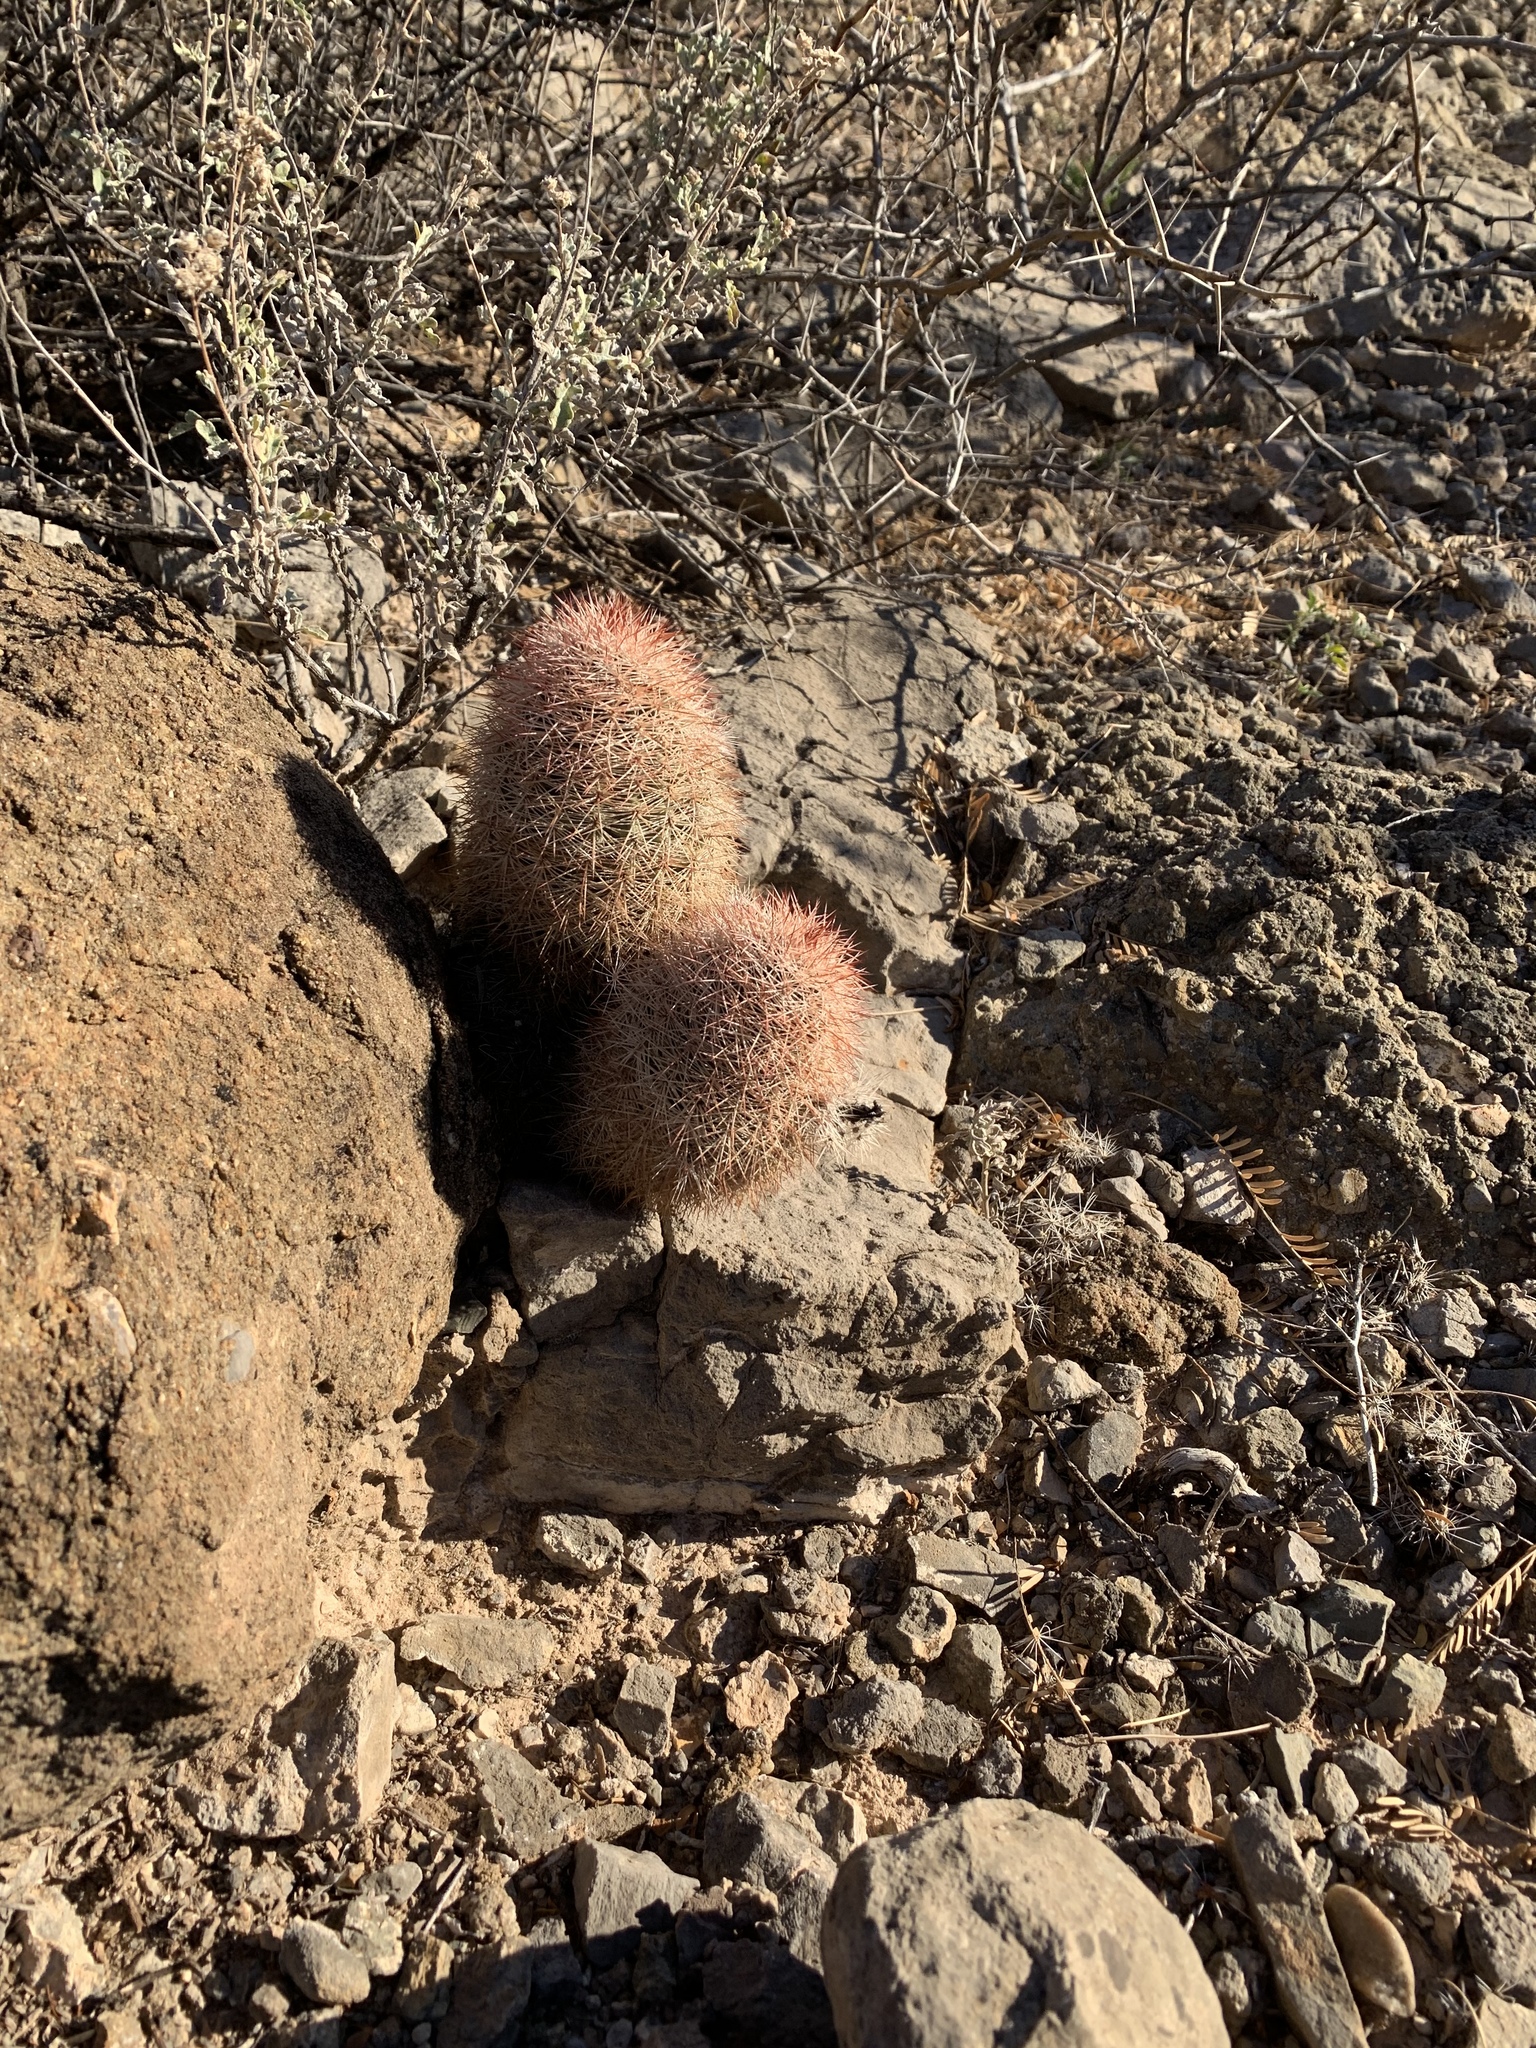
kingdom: Plantae
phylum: Tracheophyta
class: Magnoliopsida
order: Caryophyllales
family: Cactaceae
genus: Echinocereus
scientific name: Echinocereus dasyacanthus
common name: Spiny hedgehog cactus
